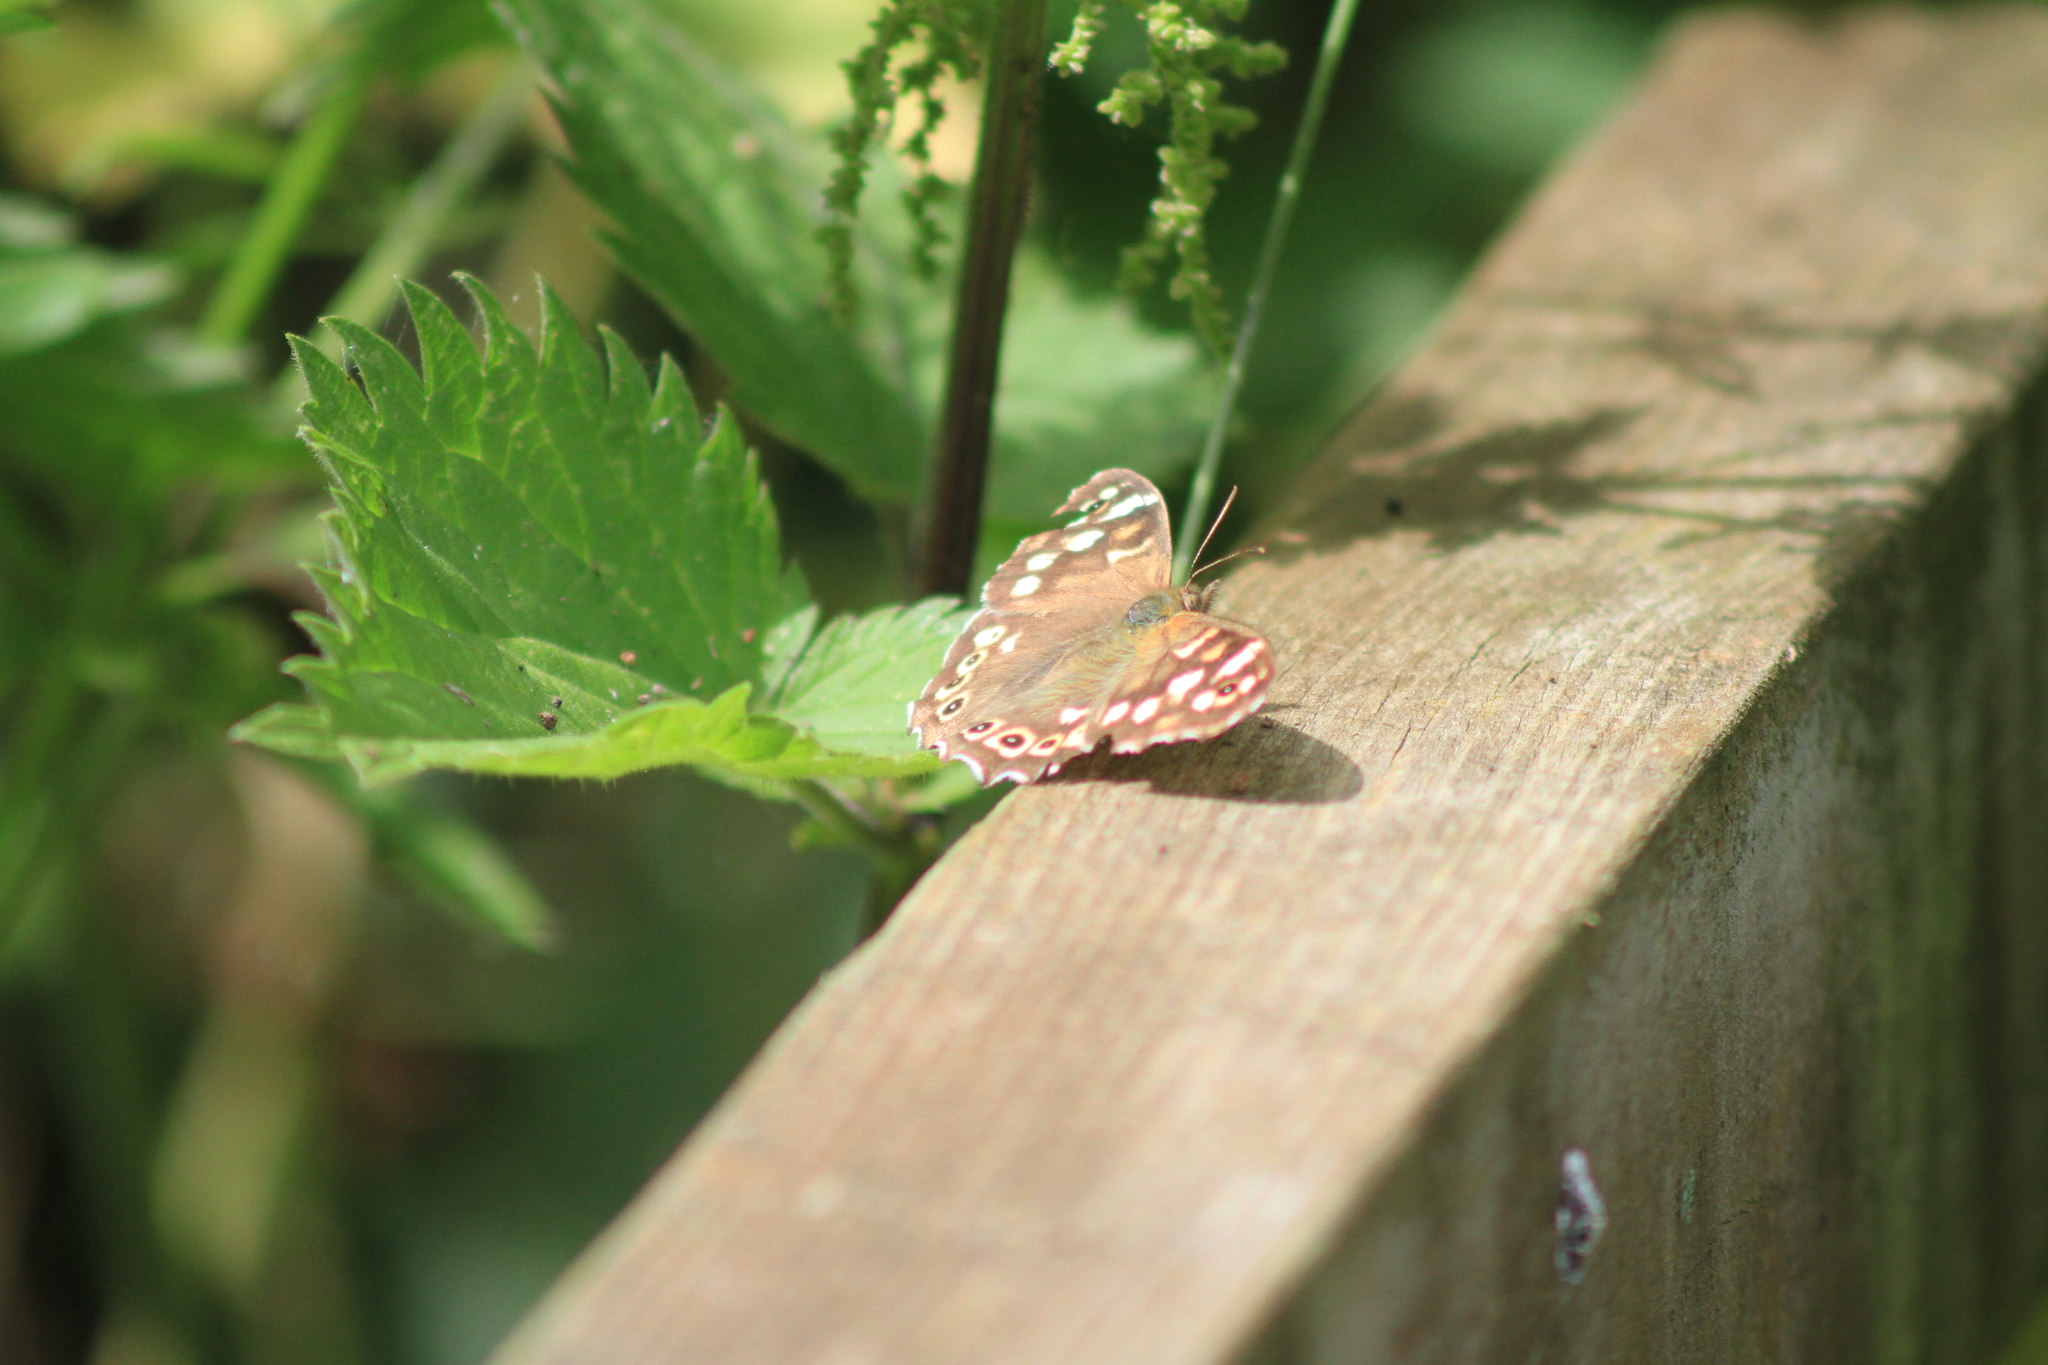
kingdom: Animalia
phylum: Arthropoda
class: Insecta
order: Lepidoptera
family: Nymphalidae
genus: Pararge
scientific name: Pararge aegeria
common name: Speckled wood
